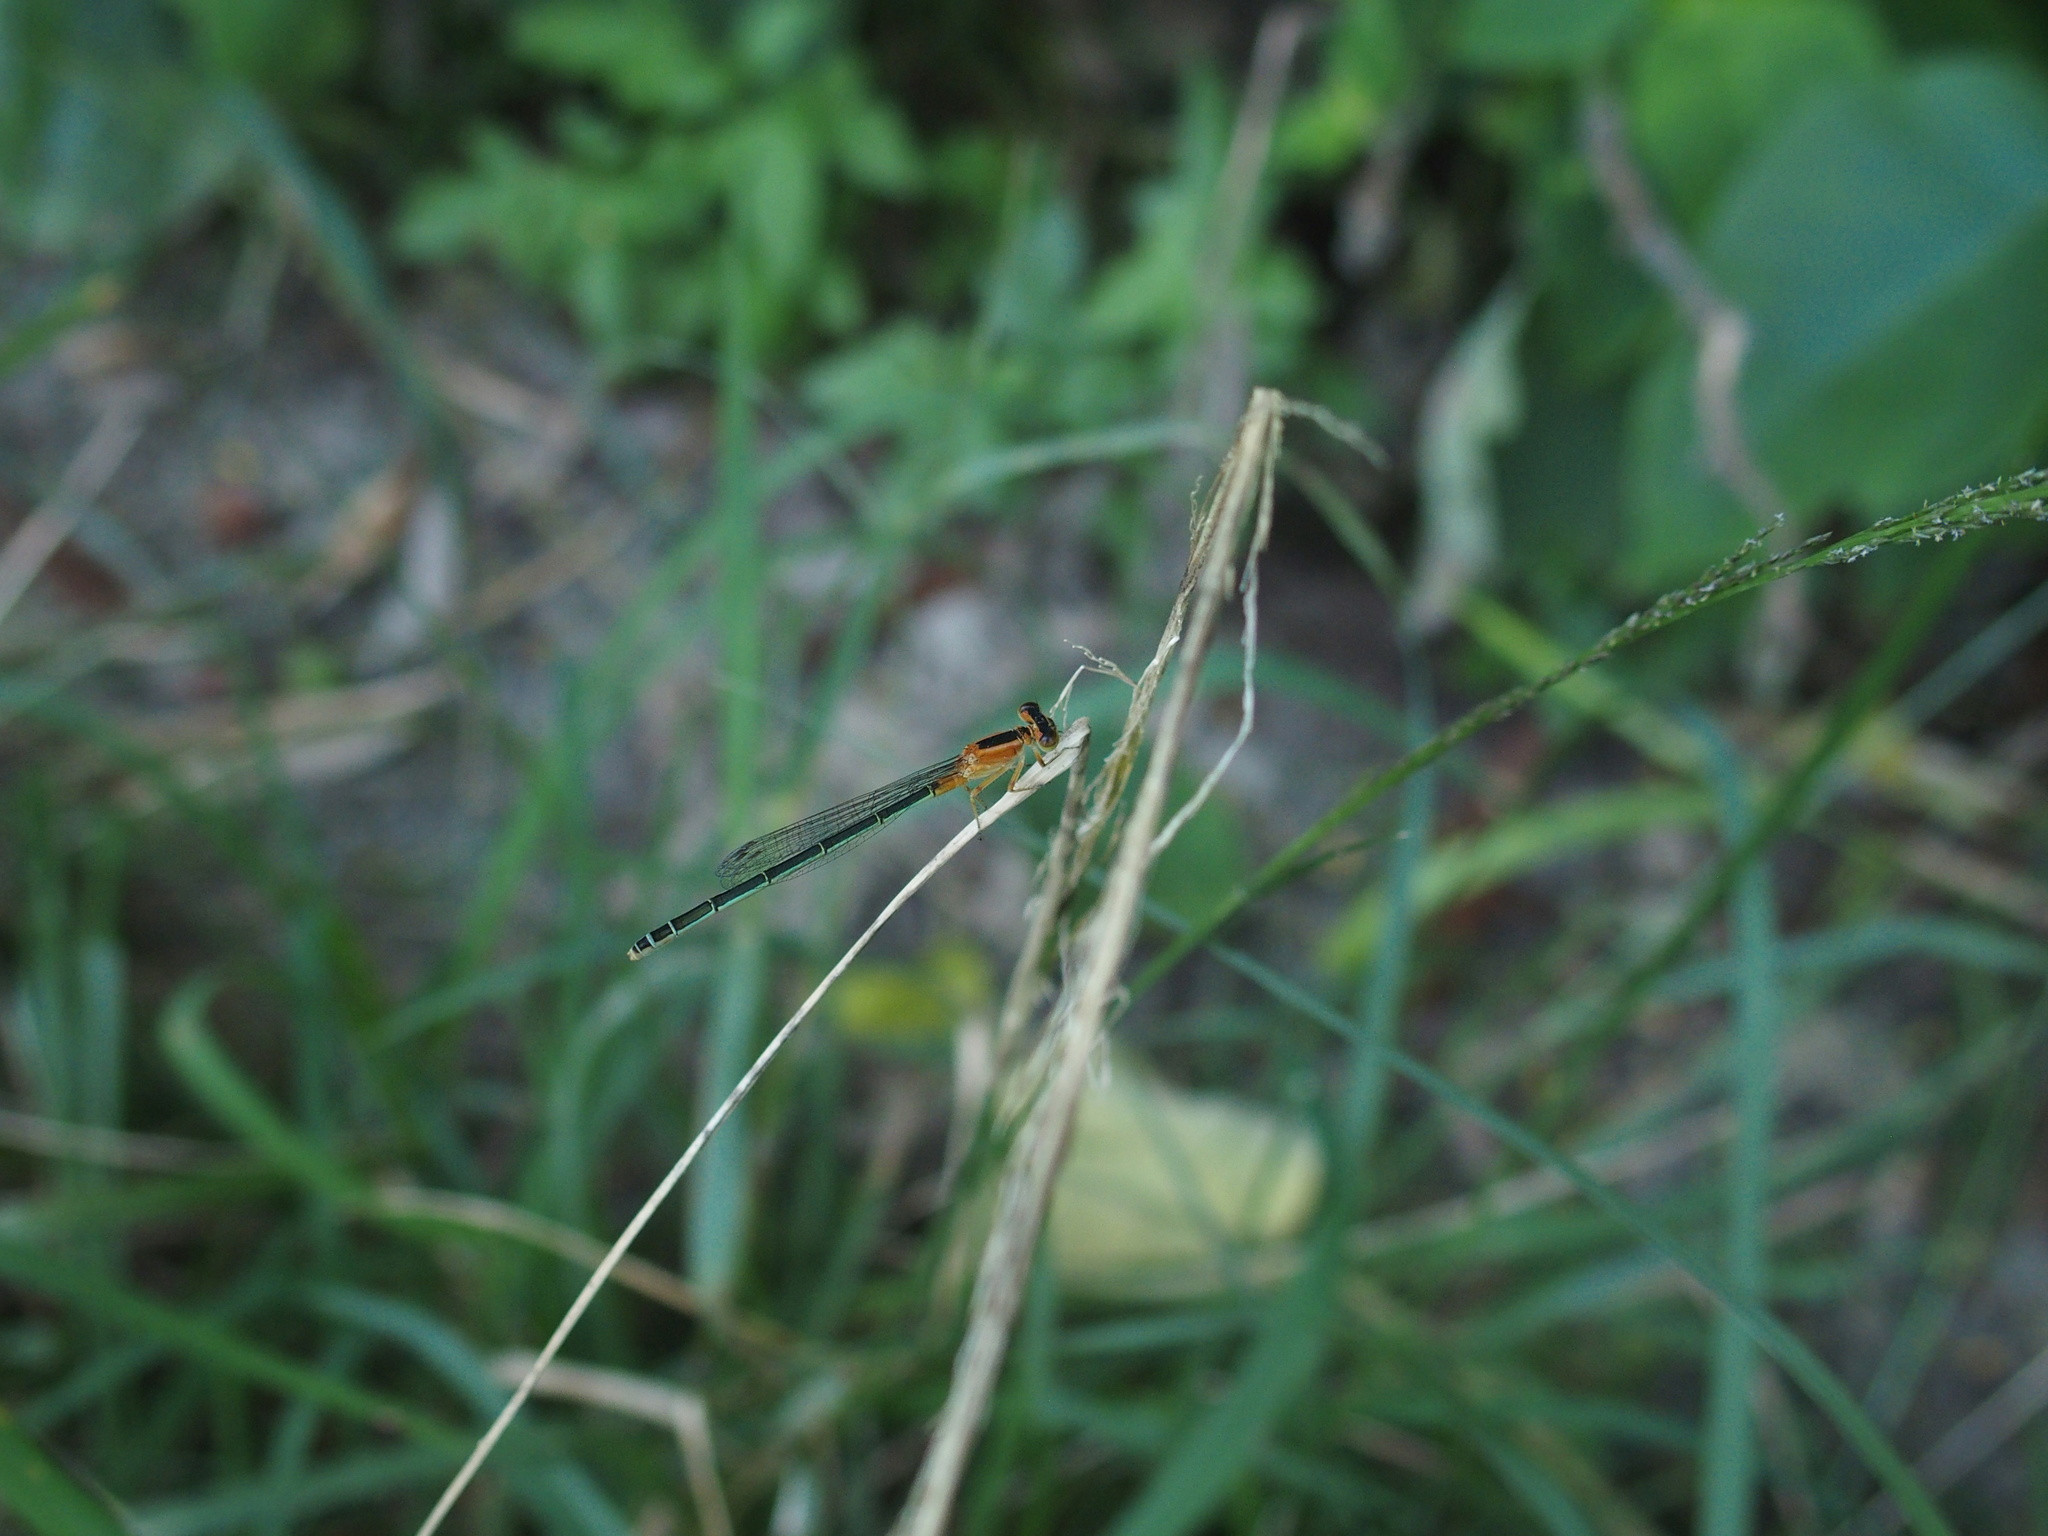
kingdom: Animalia
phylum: Arthropoda
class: Insecta
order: Odonata
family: Coenagrionidae
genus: Ischnura
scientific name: Ischnura senegalensis
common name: Tropical bluetail
